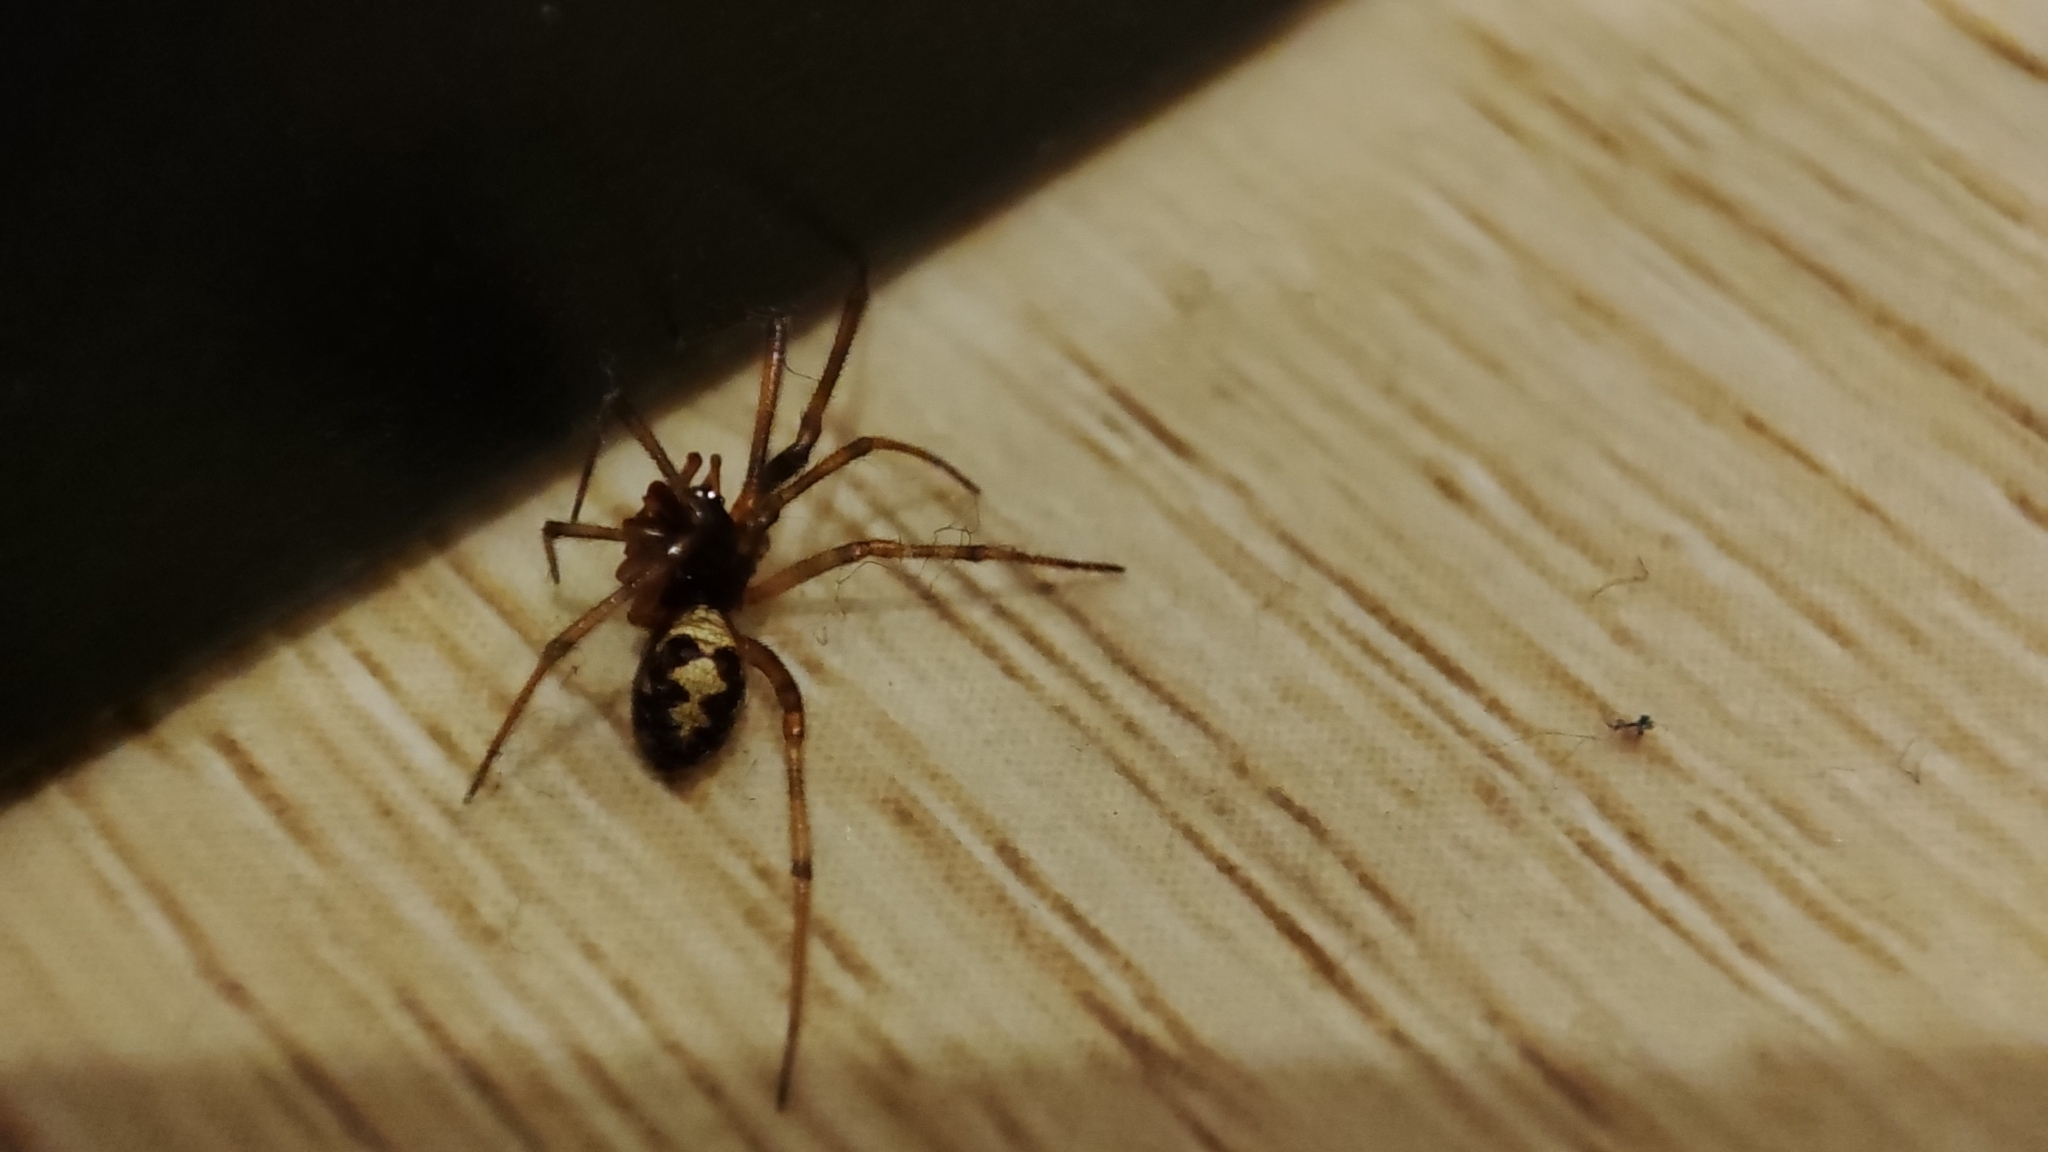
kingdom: Animalia
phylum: Arthropoda
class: Arachnida
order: Araneae
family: Theridiidae
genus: Steatoda
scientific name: Steatoda triangulosa
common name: Triangulate bud spider
